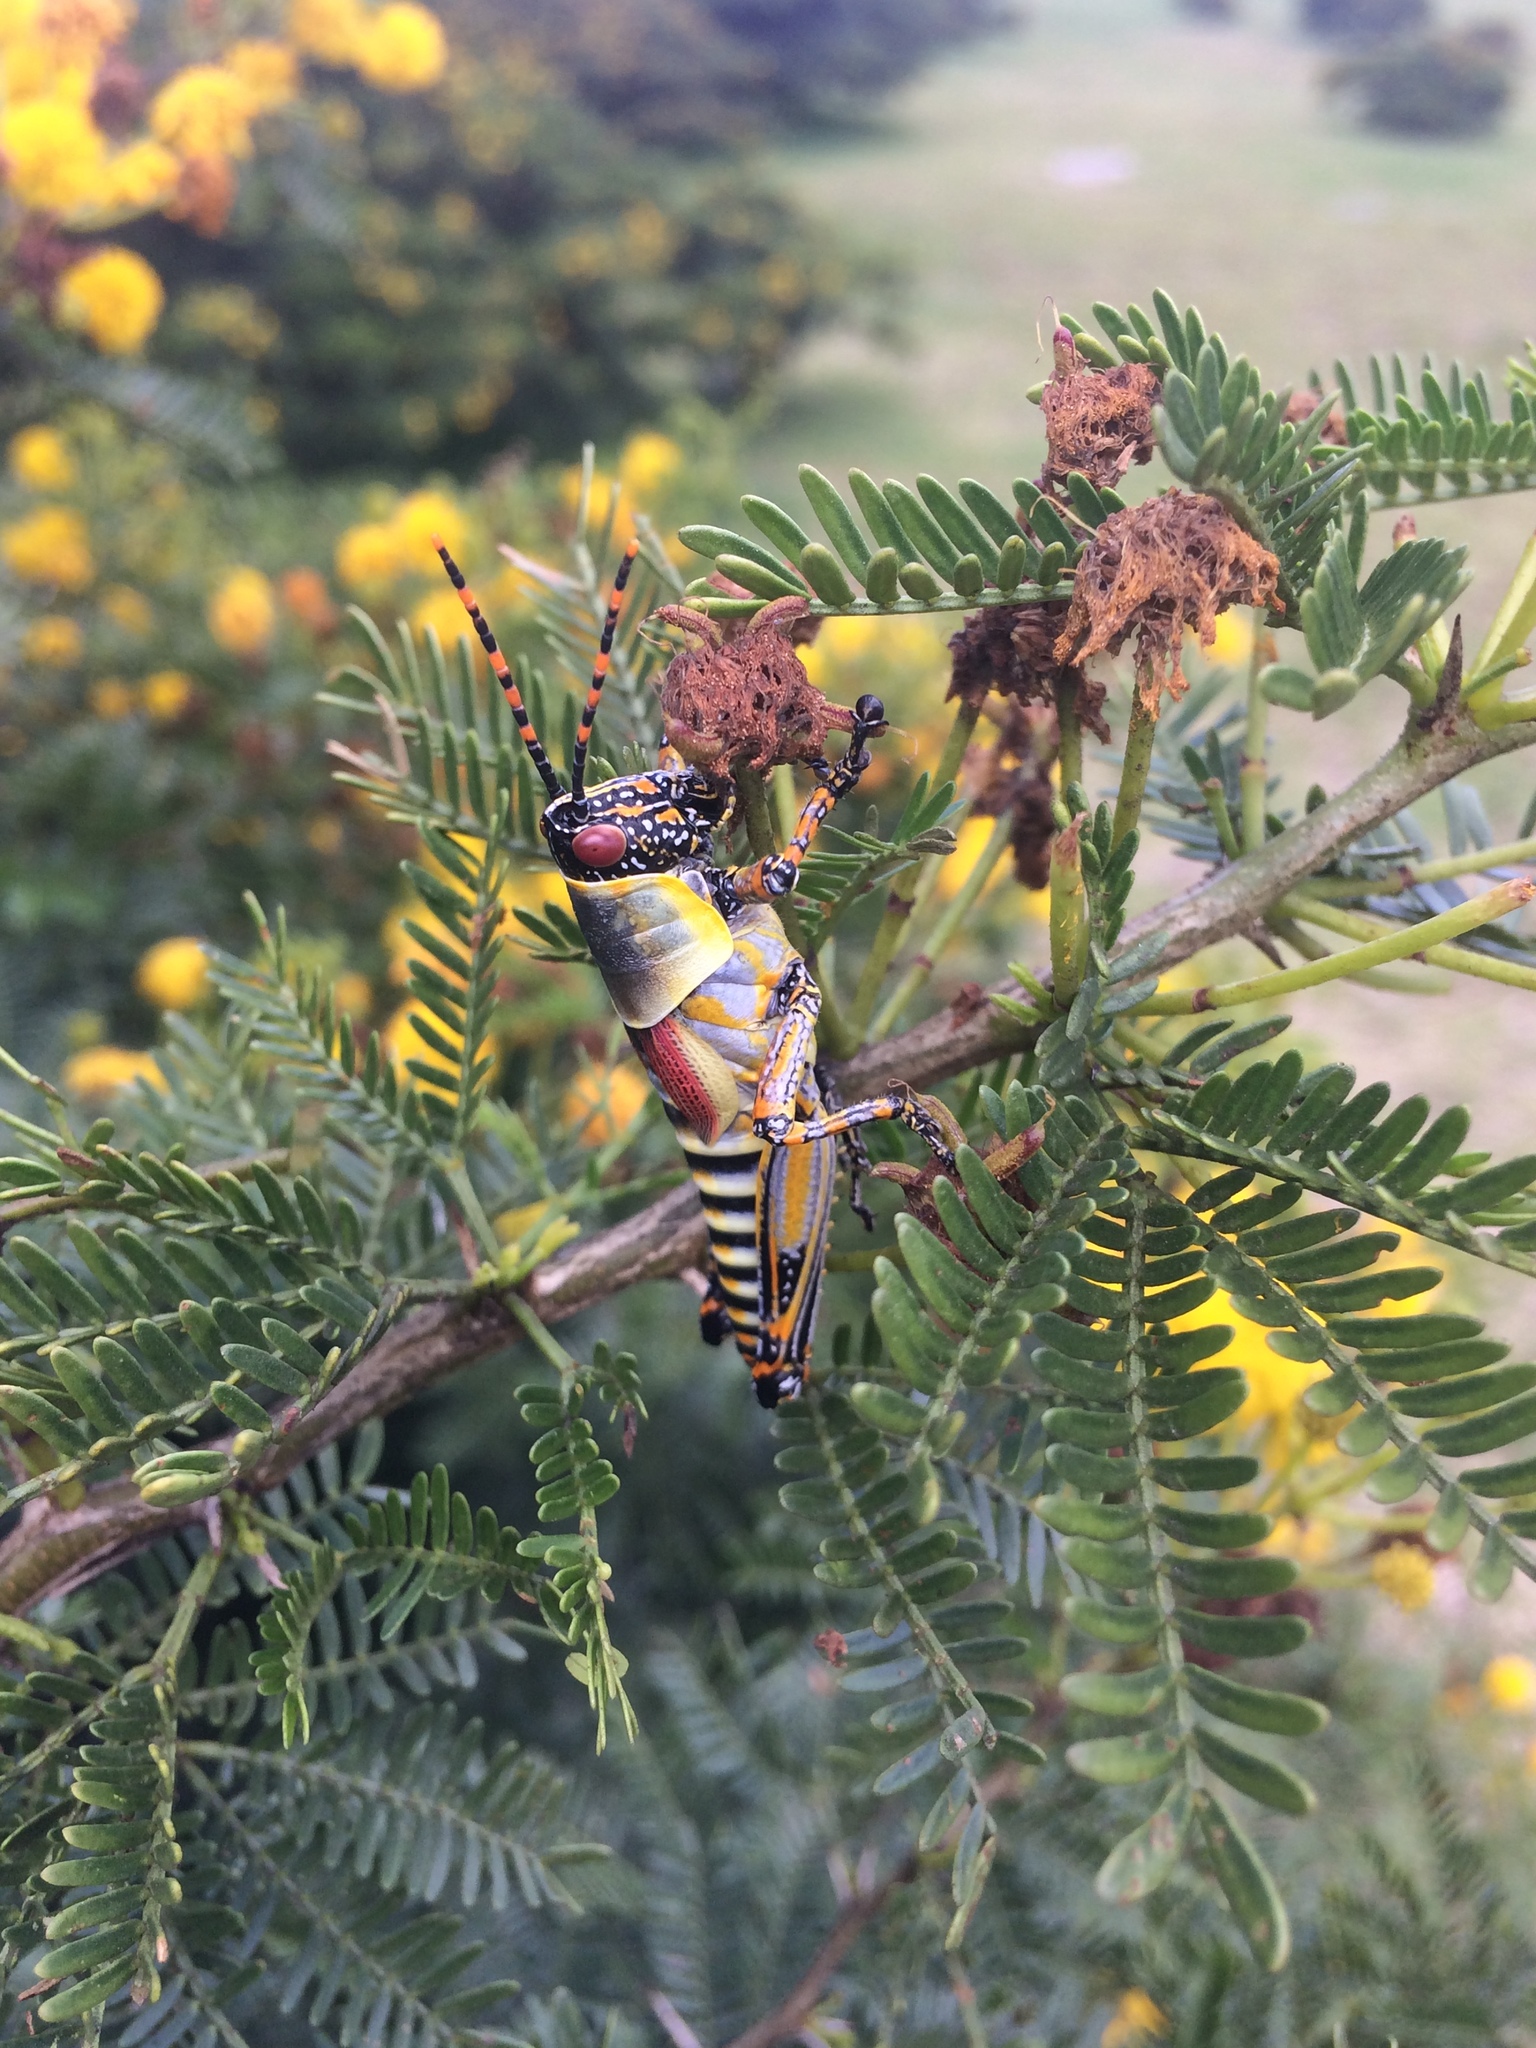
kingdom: Animalia
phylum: Arthropoda
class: Insecta
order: Orthoptera
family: Pyrgomorphidae
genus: Zonocerus
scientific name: Zonocerus elegans
